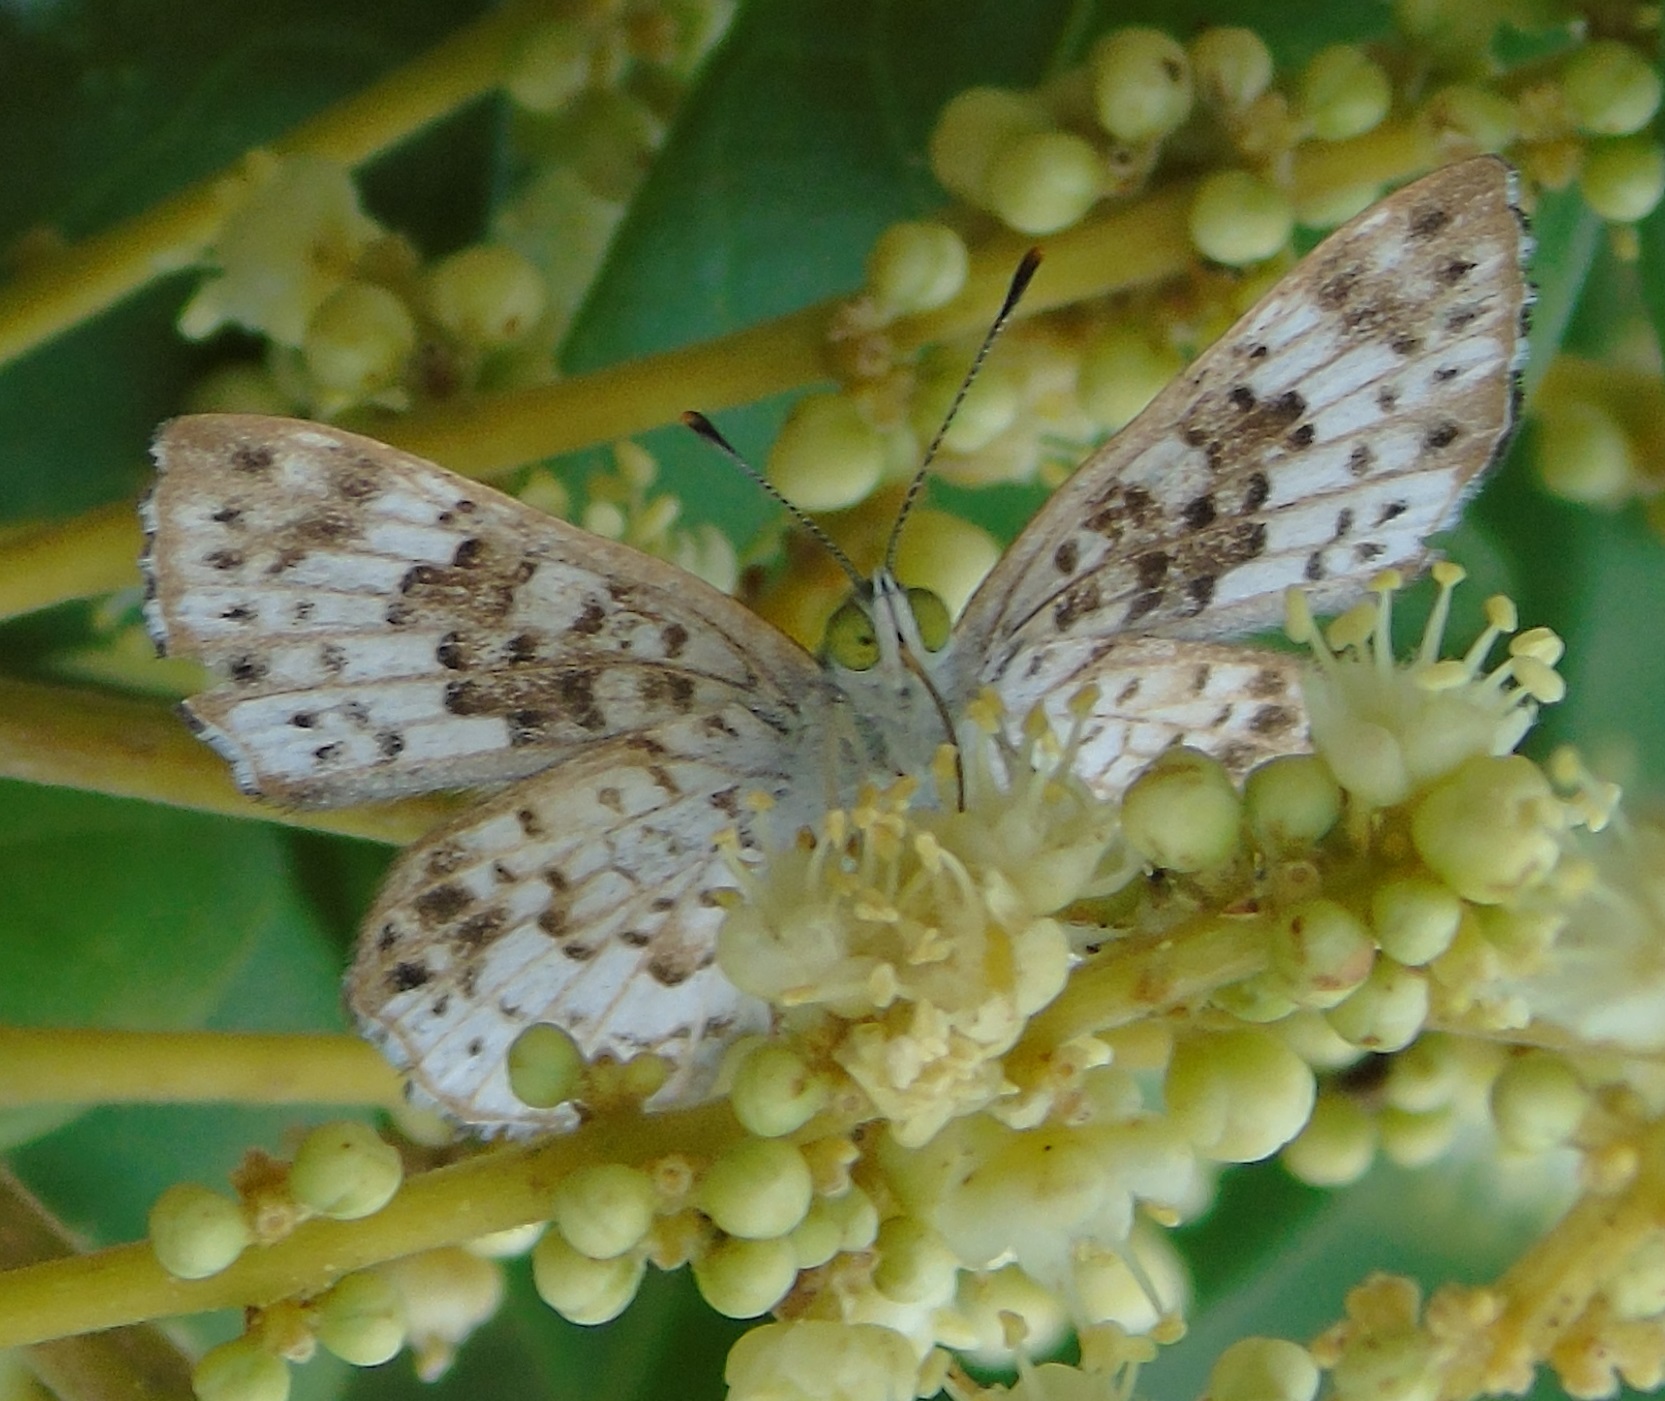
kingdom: Animalia
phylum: Arthropoda
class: Insecta
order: Lepidoptera
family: Riodinidae
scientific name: Riodinidae
